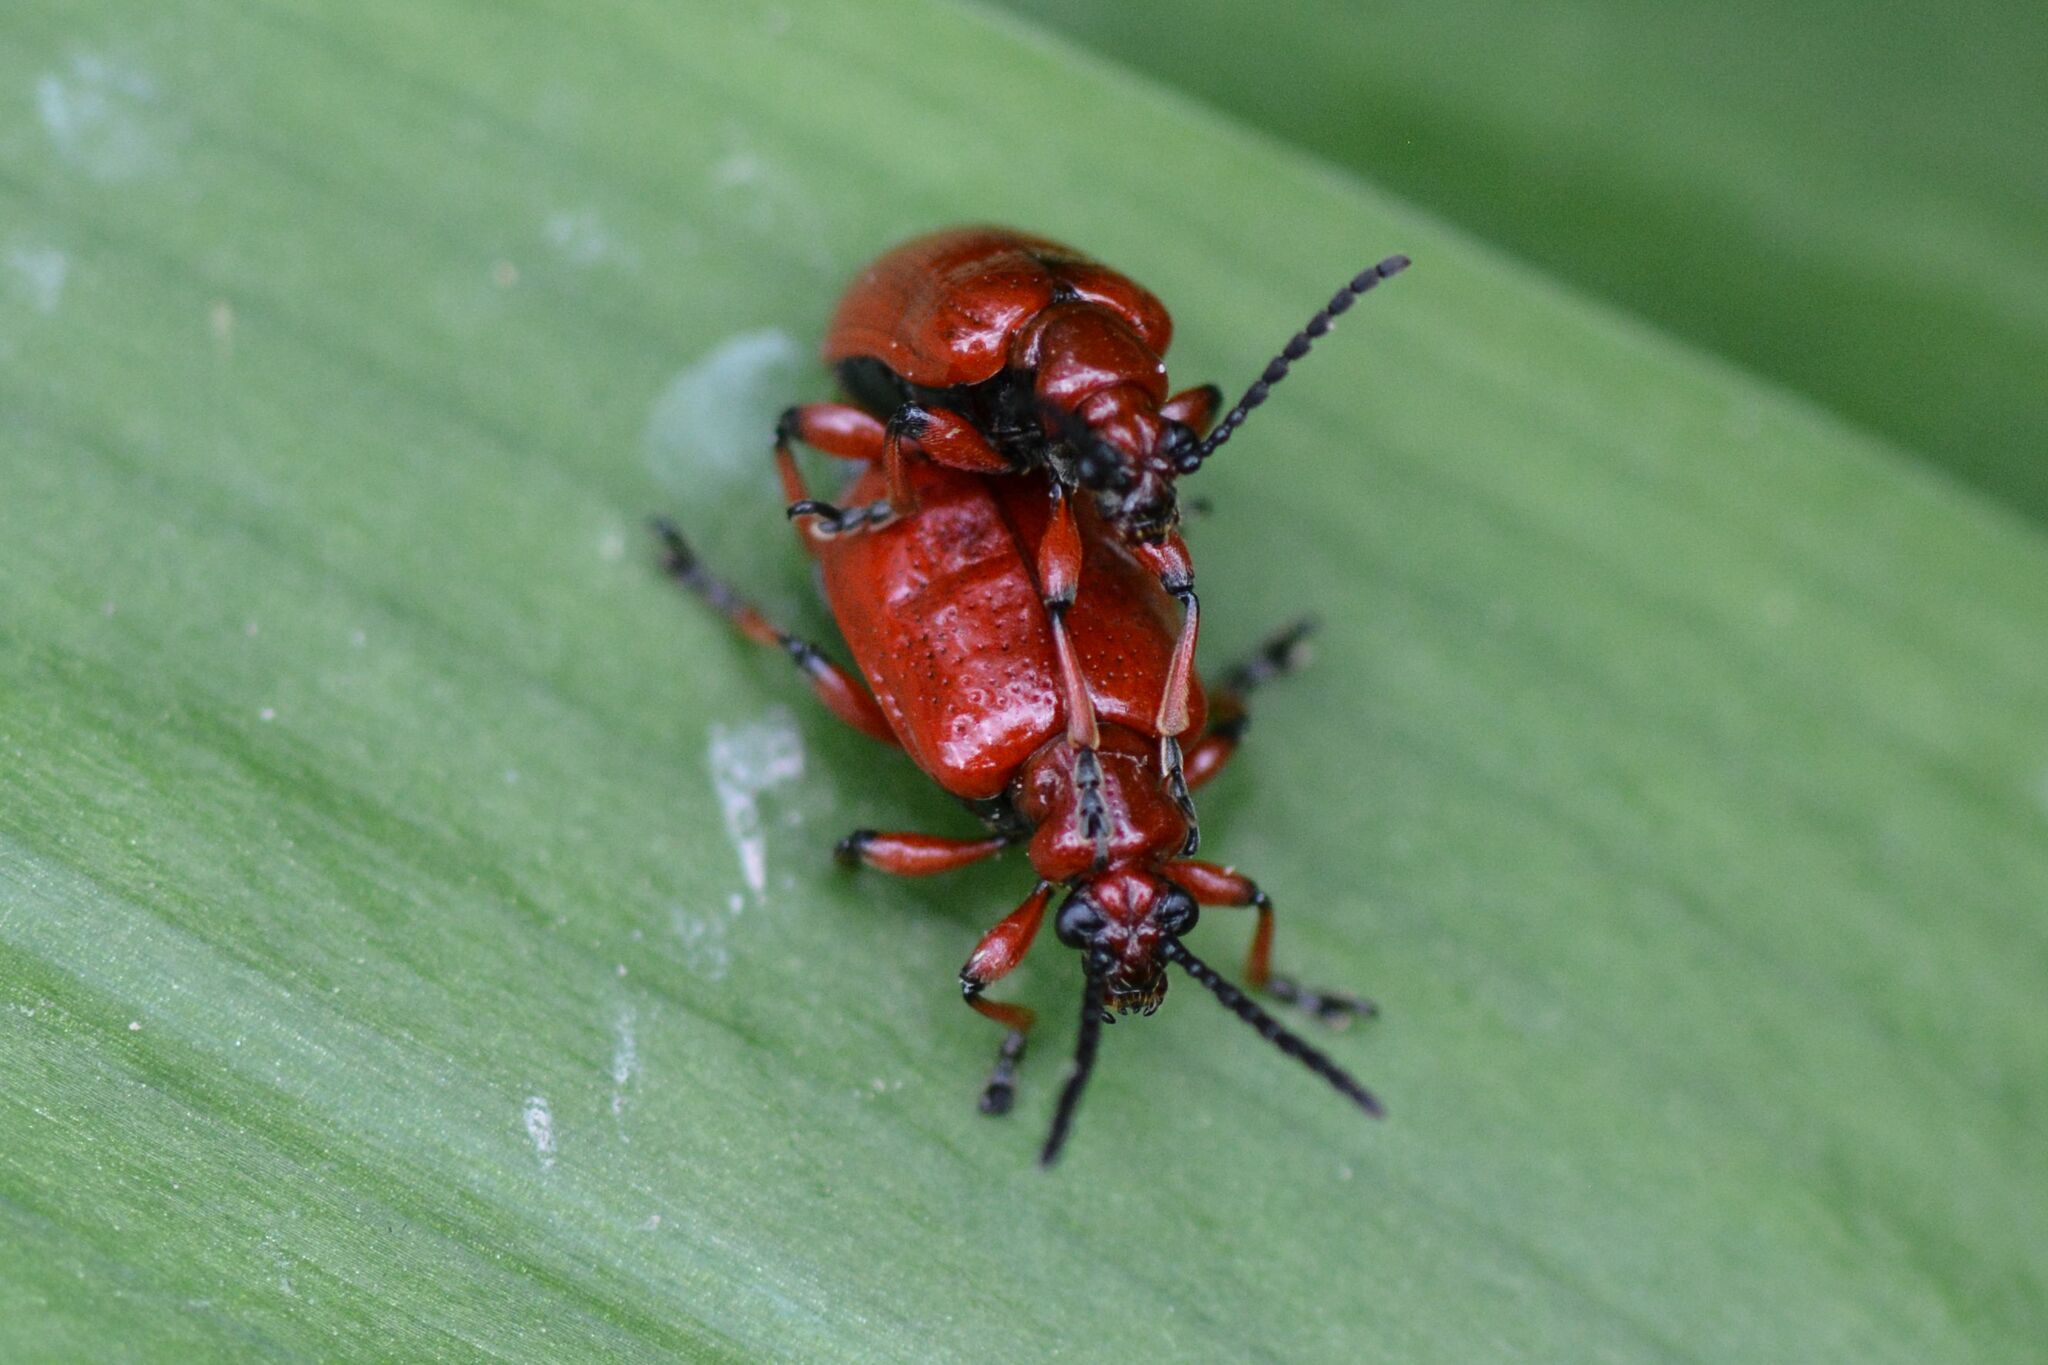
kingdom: Animalia
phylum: Arthropoda
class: Insecta
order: Coleoptera
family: Chrysomelidae
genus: Lilioceris
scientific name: Lilioceris merdigera
